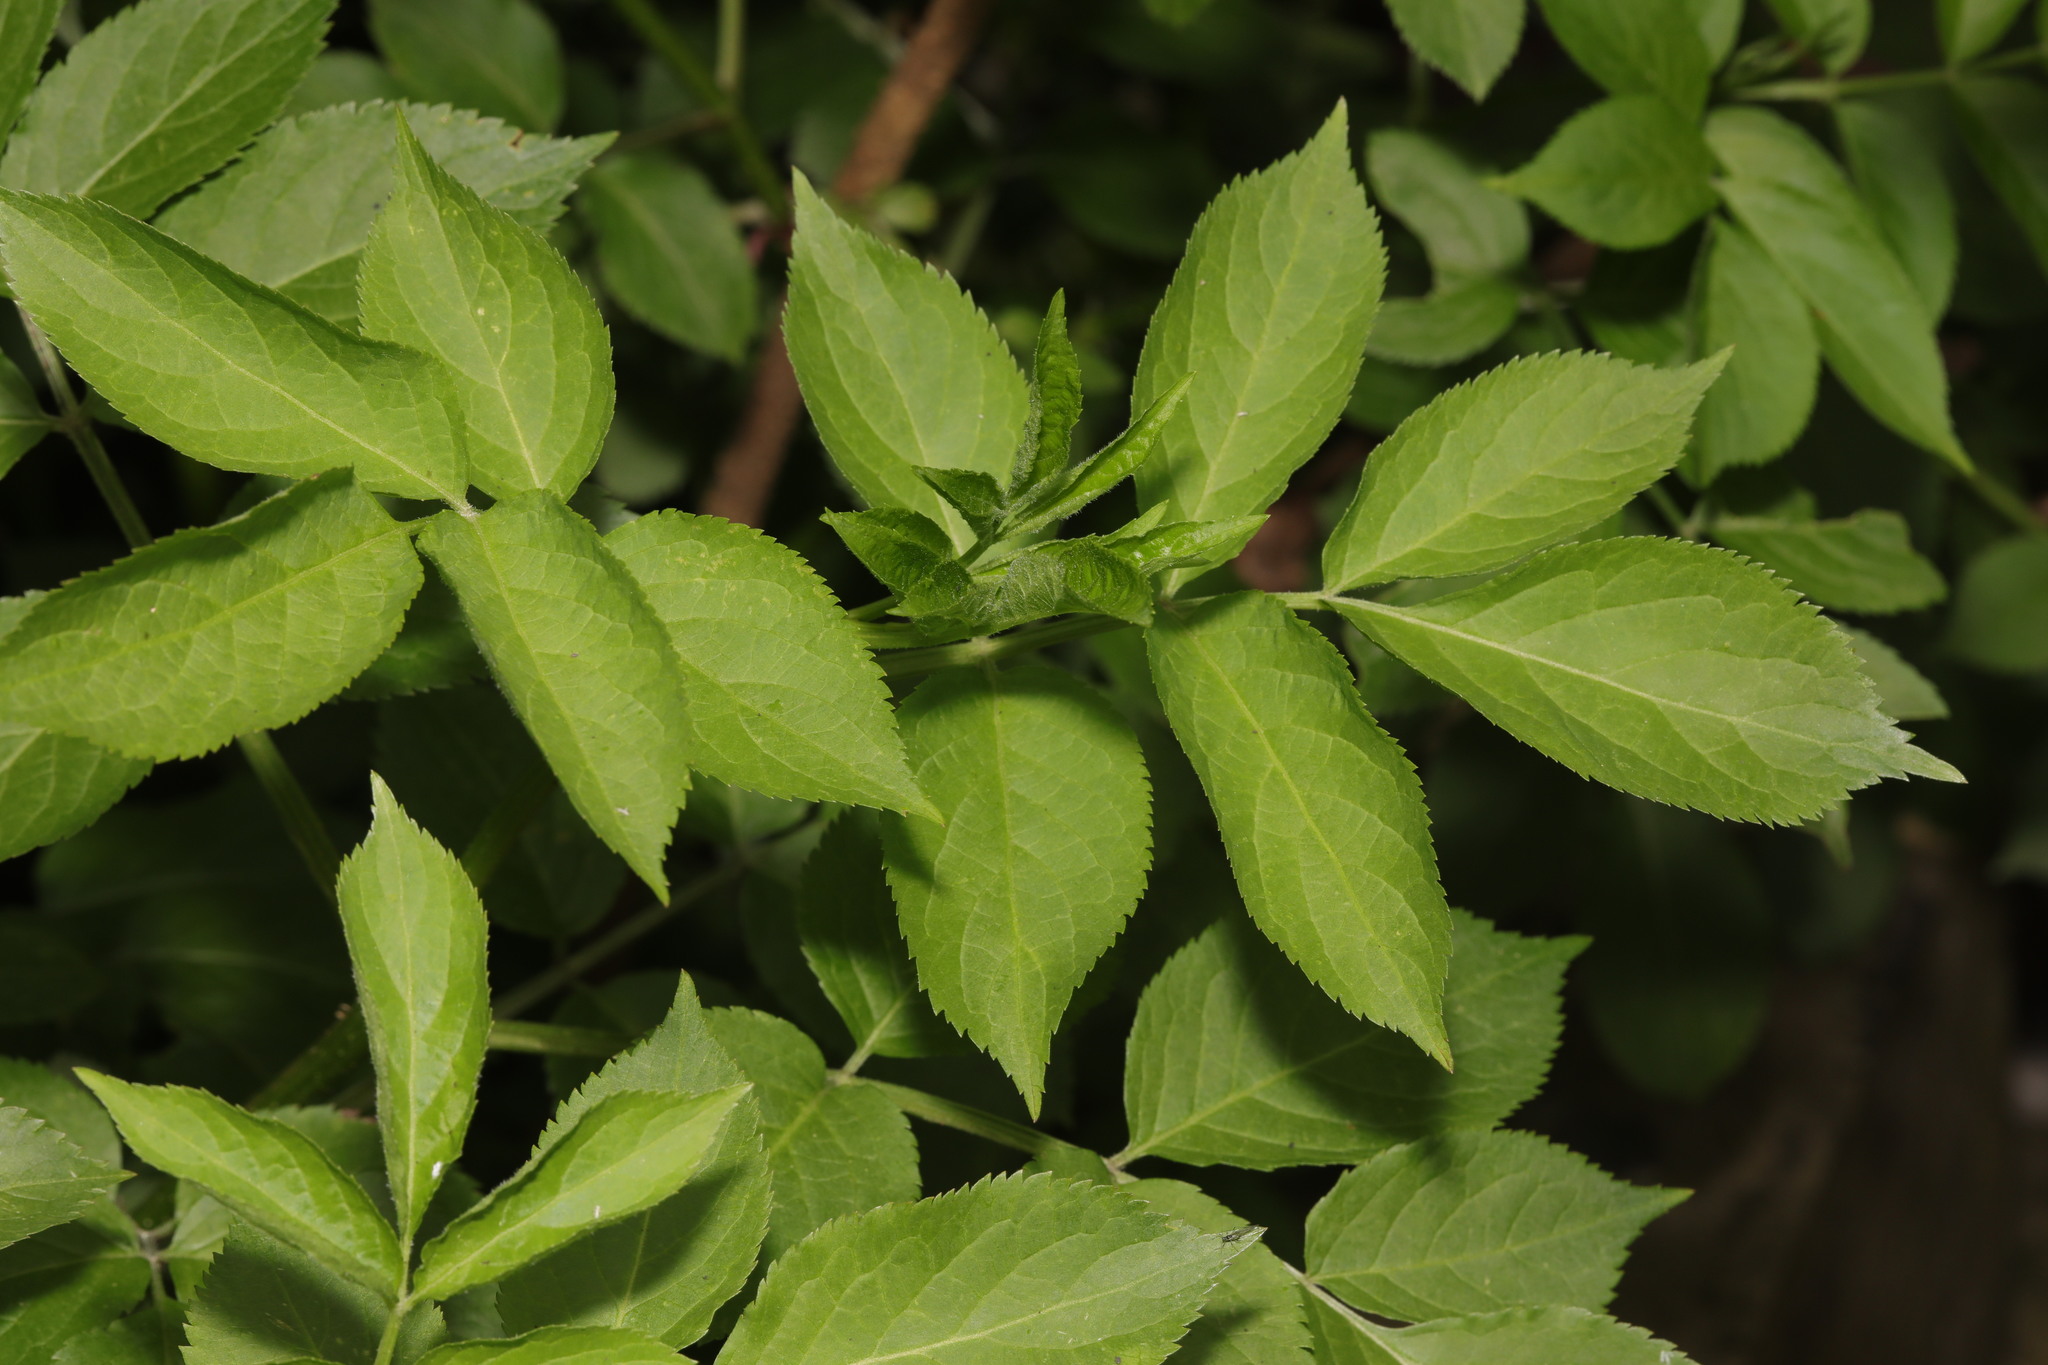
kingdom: Plantae
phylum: Tracheophyta
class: Magnoliopsida
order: Dipsacales
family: Viburnaceae
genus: Sambucus
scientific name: Sambucus nigra
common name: Elder
